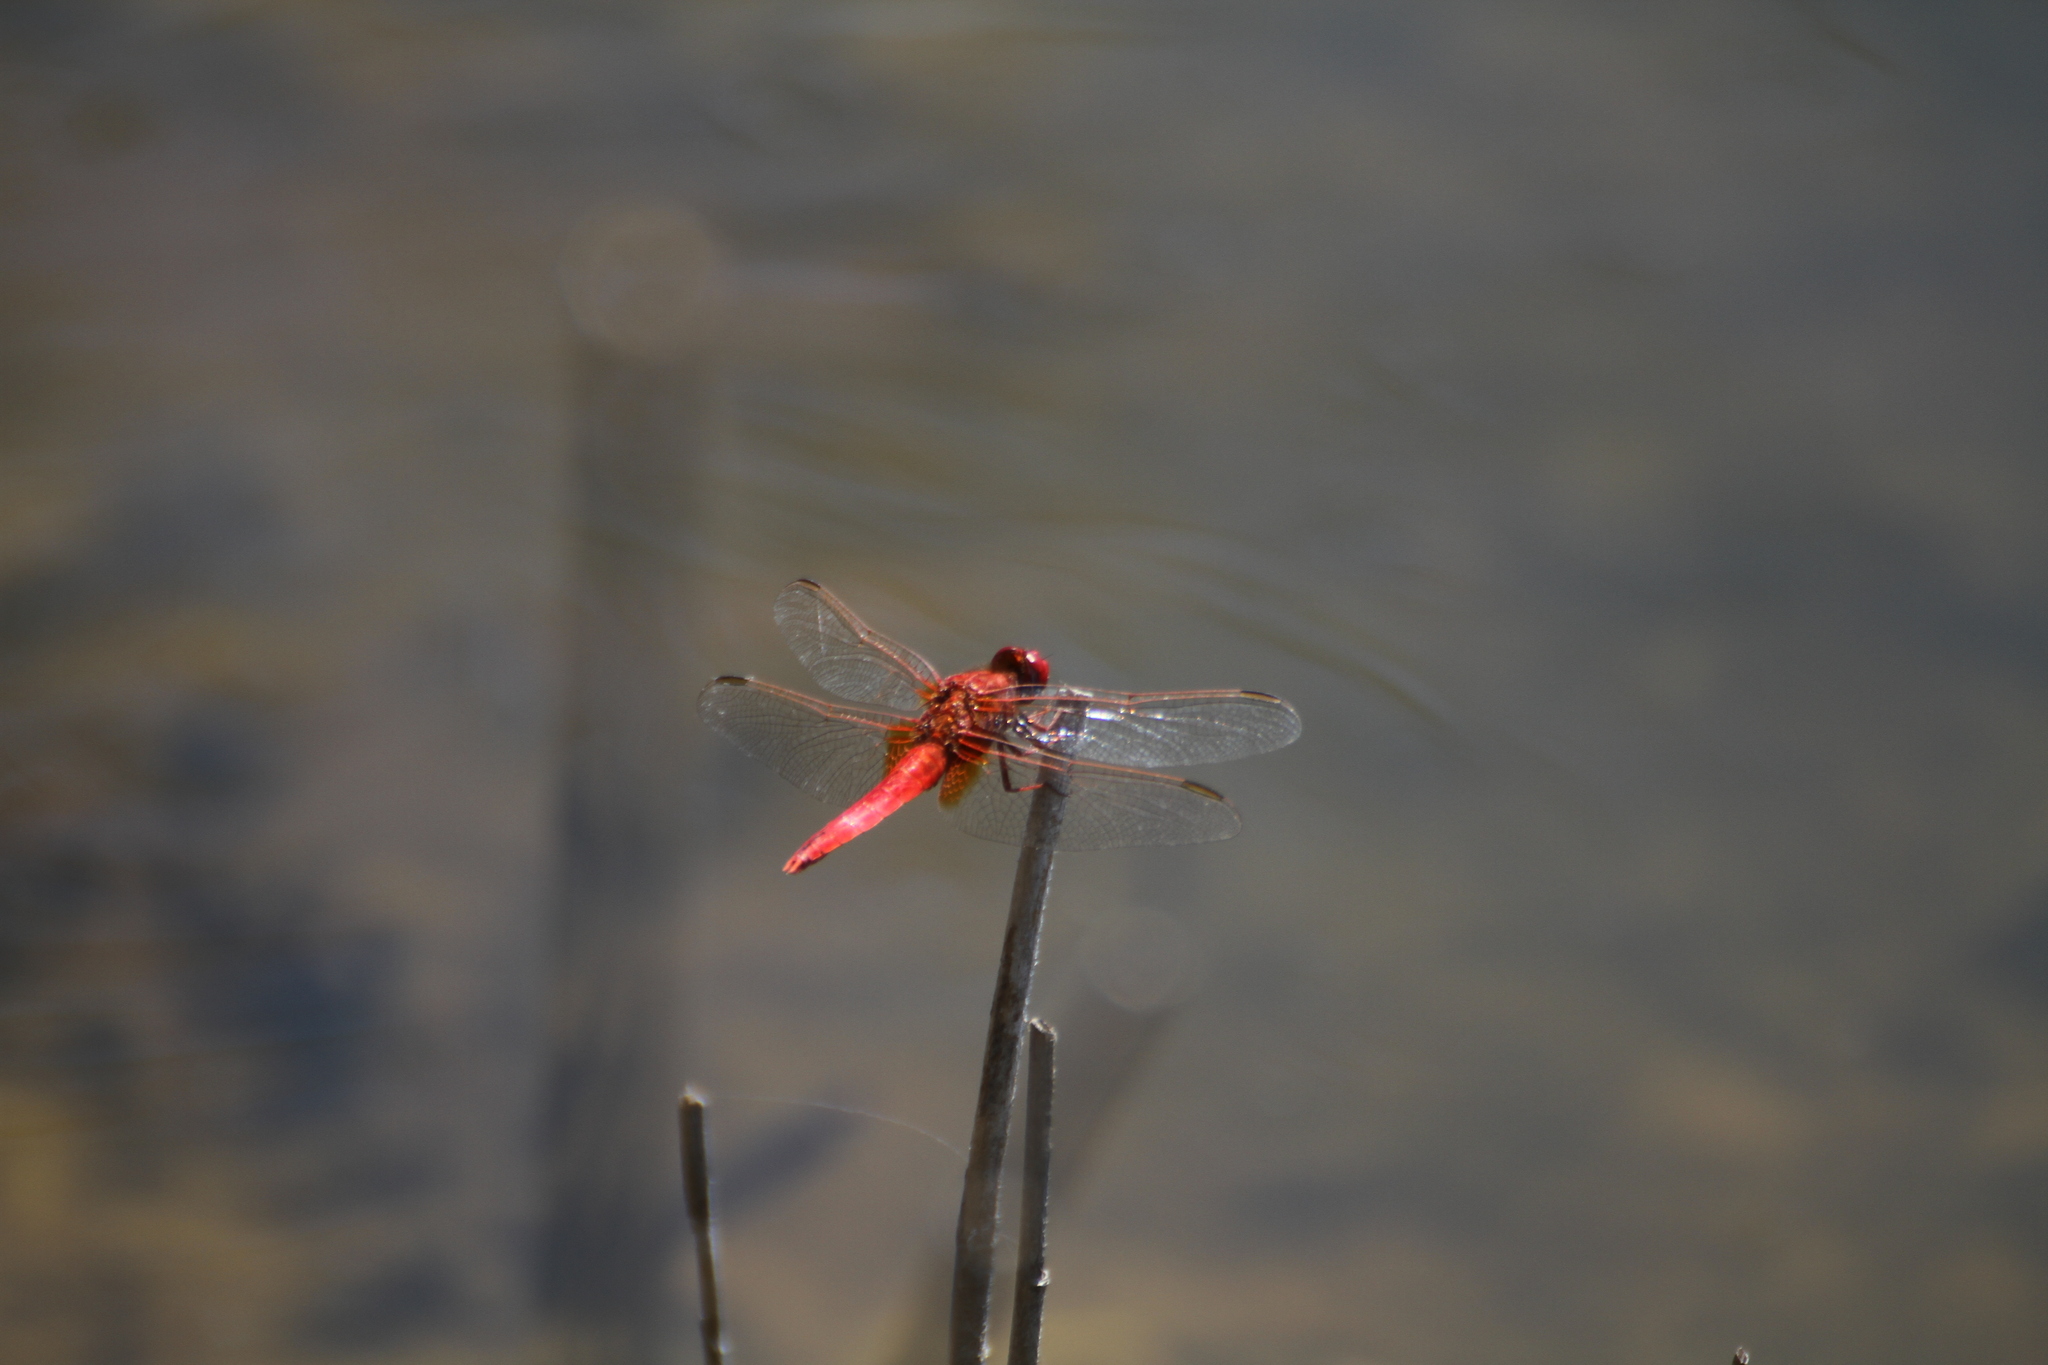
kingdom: Animalia
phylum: Arthropoda
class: Insecta
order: Odonata
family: Libellulidae
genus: Crocothemis
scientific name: Crocothemis erythraea
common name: Scarlet dragonfly
